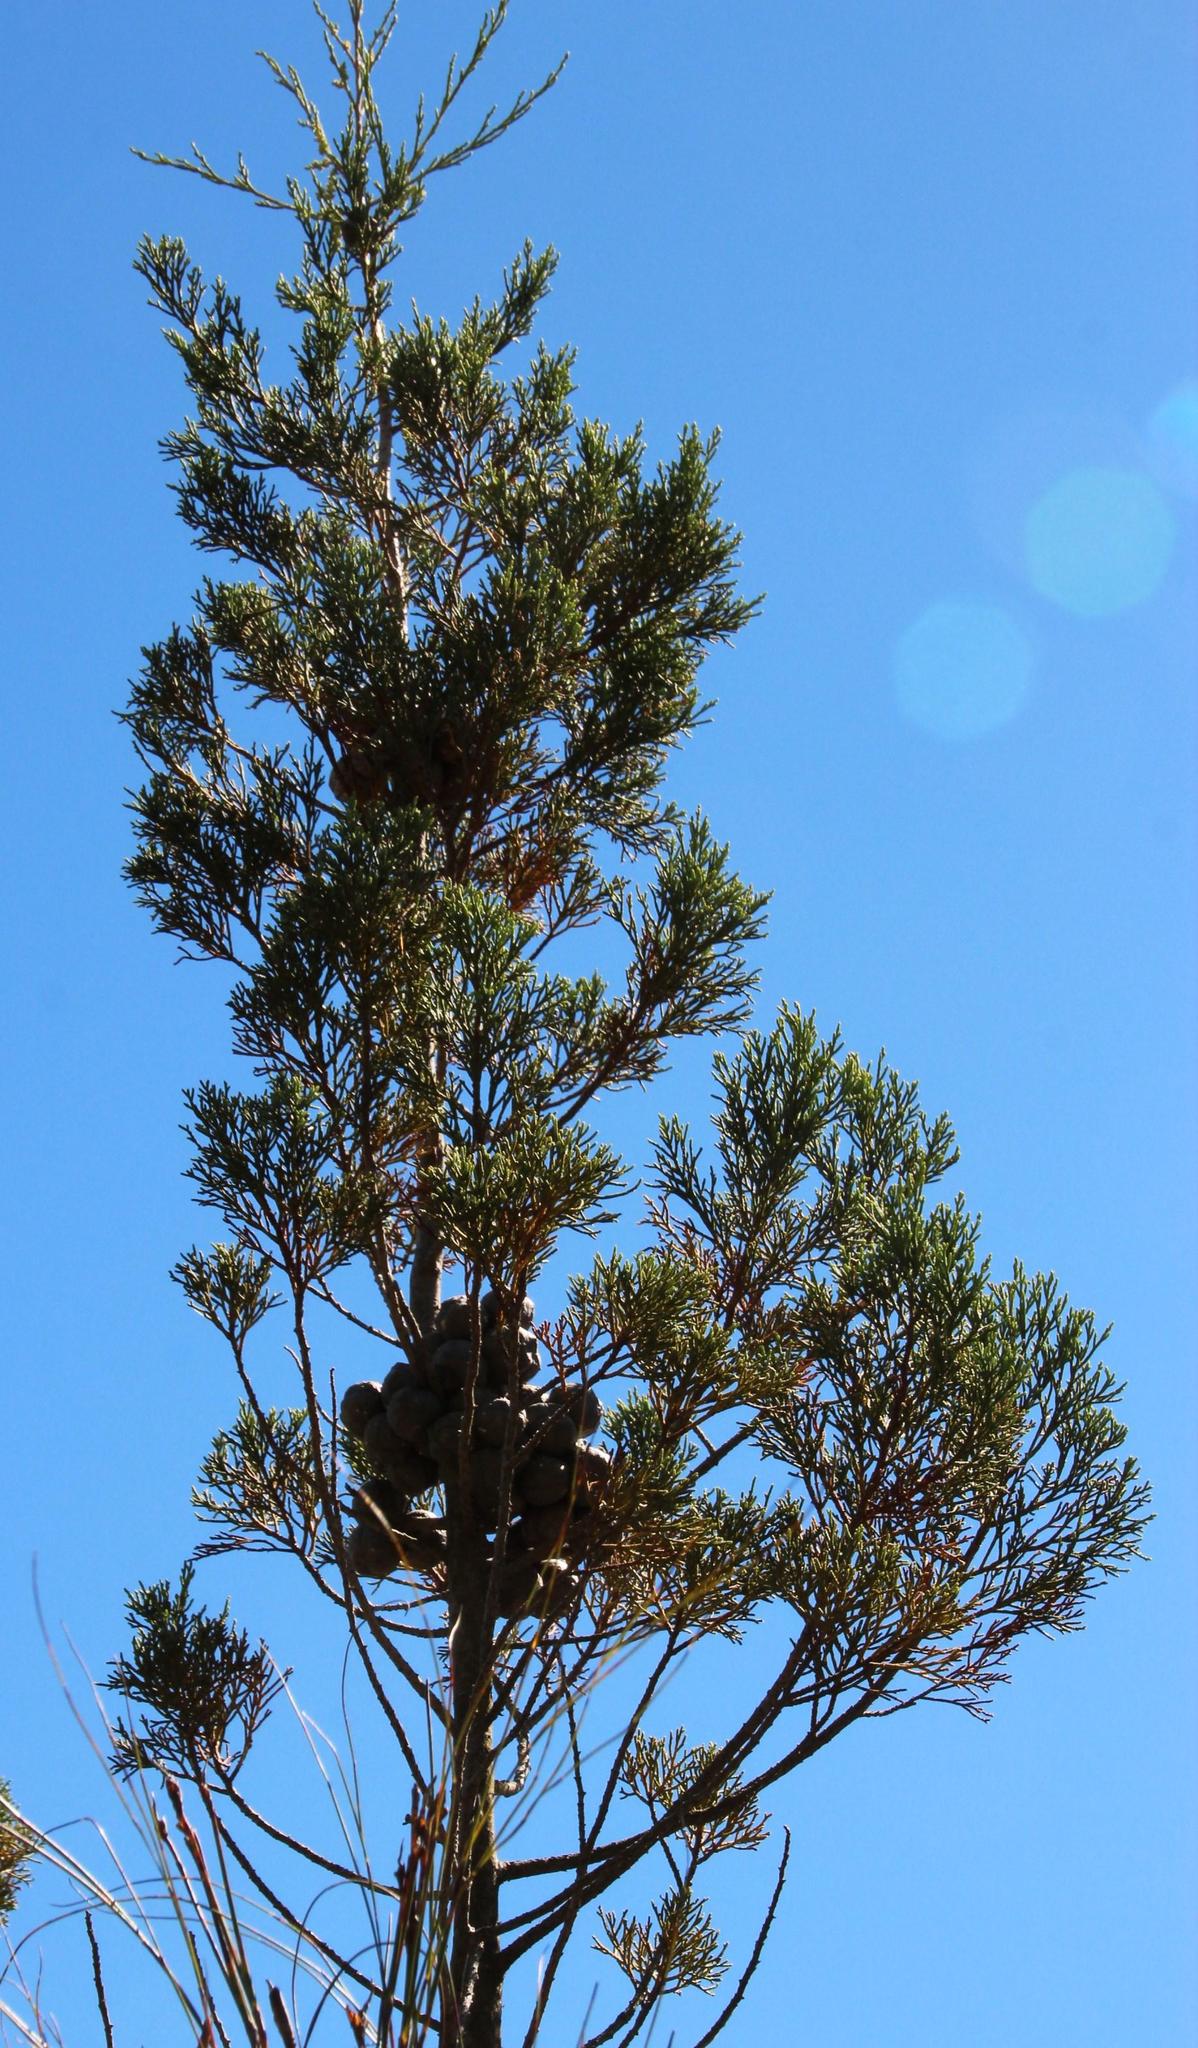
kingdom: Plantae
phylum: Tracheophyta
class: Pinopsida
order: Pinales
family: Cupressaceae
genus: Widdringtonia
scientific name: Widdringtonia nodiflora
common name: Cape cypress
